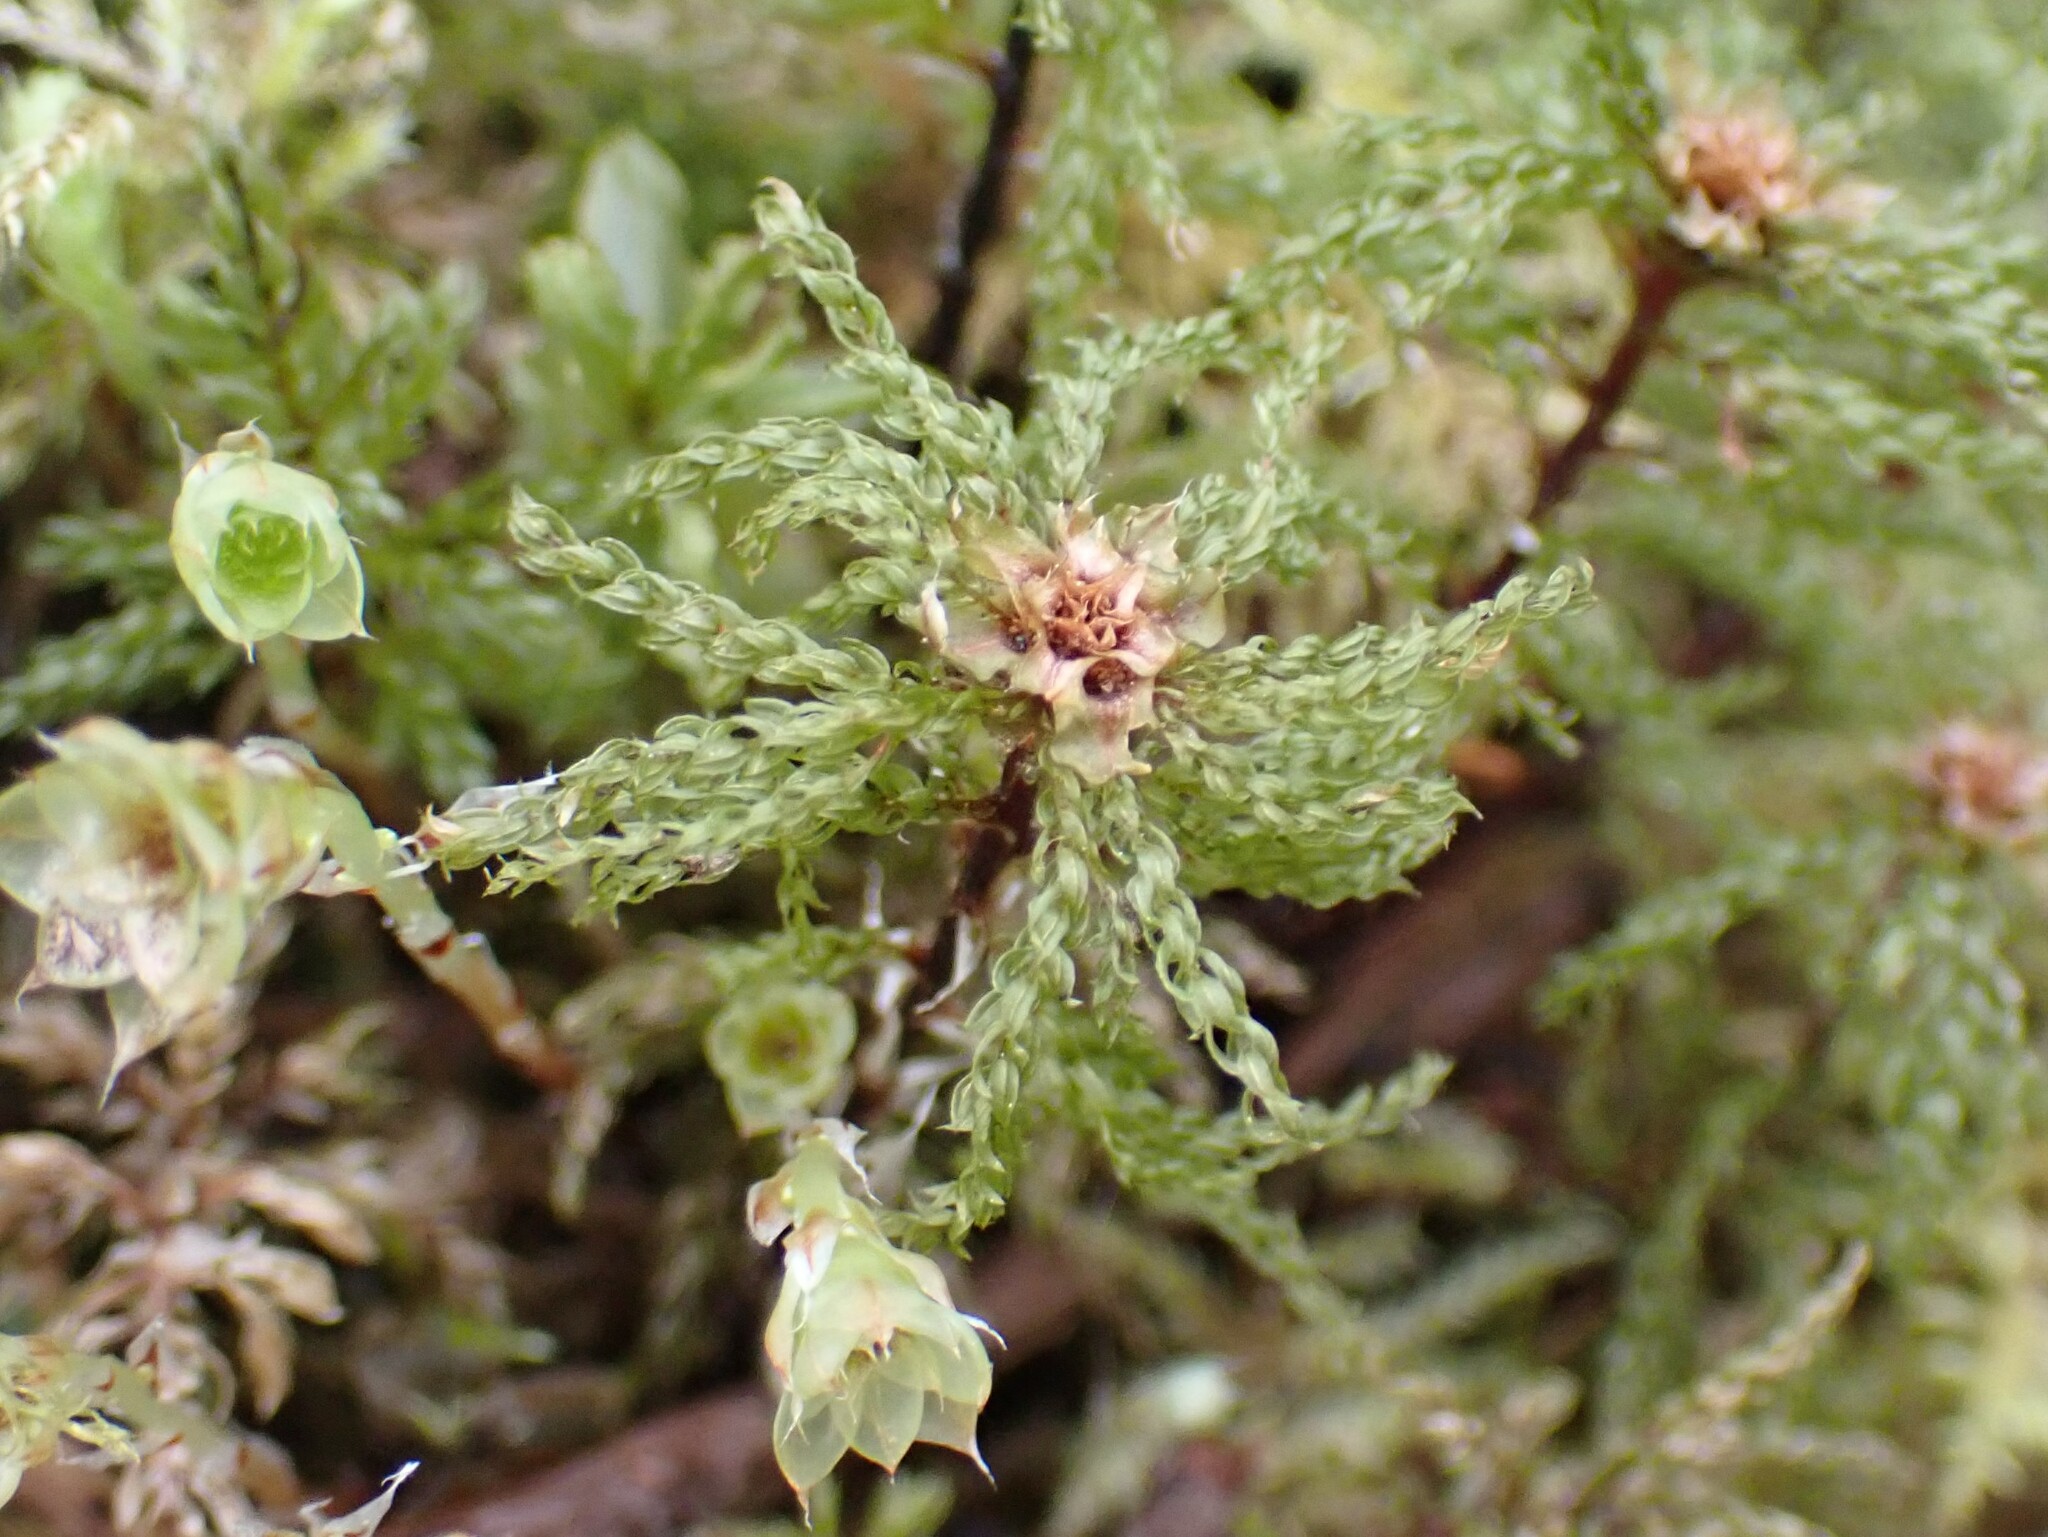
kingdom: Plantae
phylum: Bryophyta
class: Bryopsida
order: Bryales
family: Mniaceae
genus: Leucolepis
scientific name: Leucolepis acanthoneura
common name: Leucolepis umbrella moss
